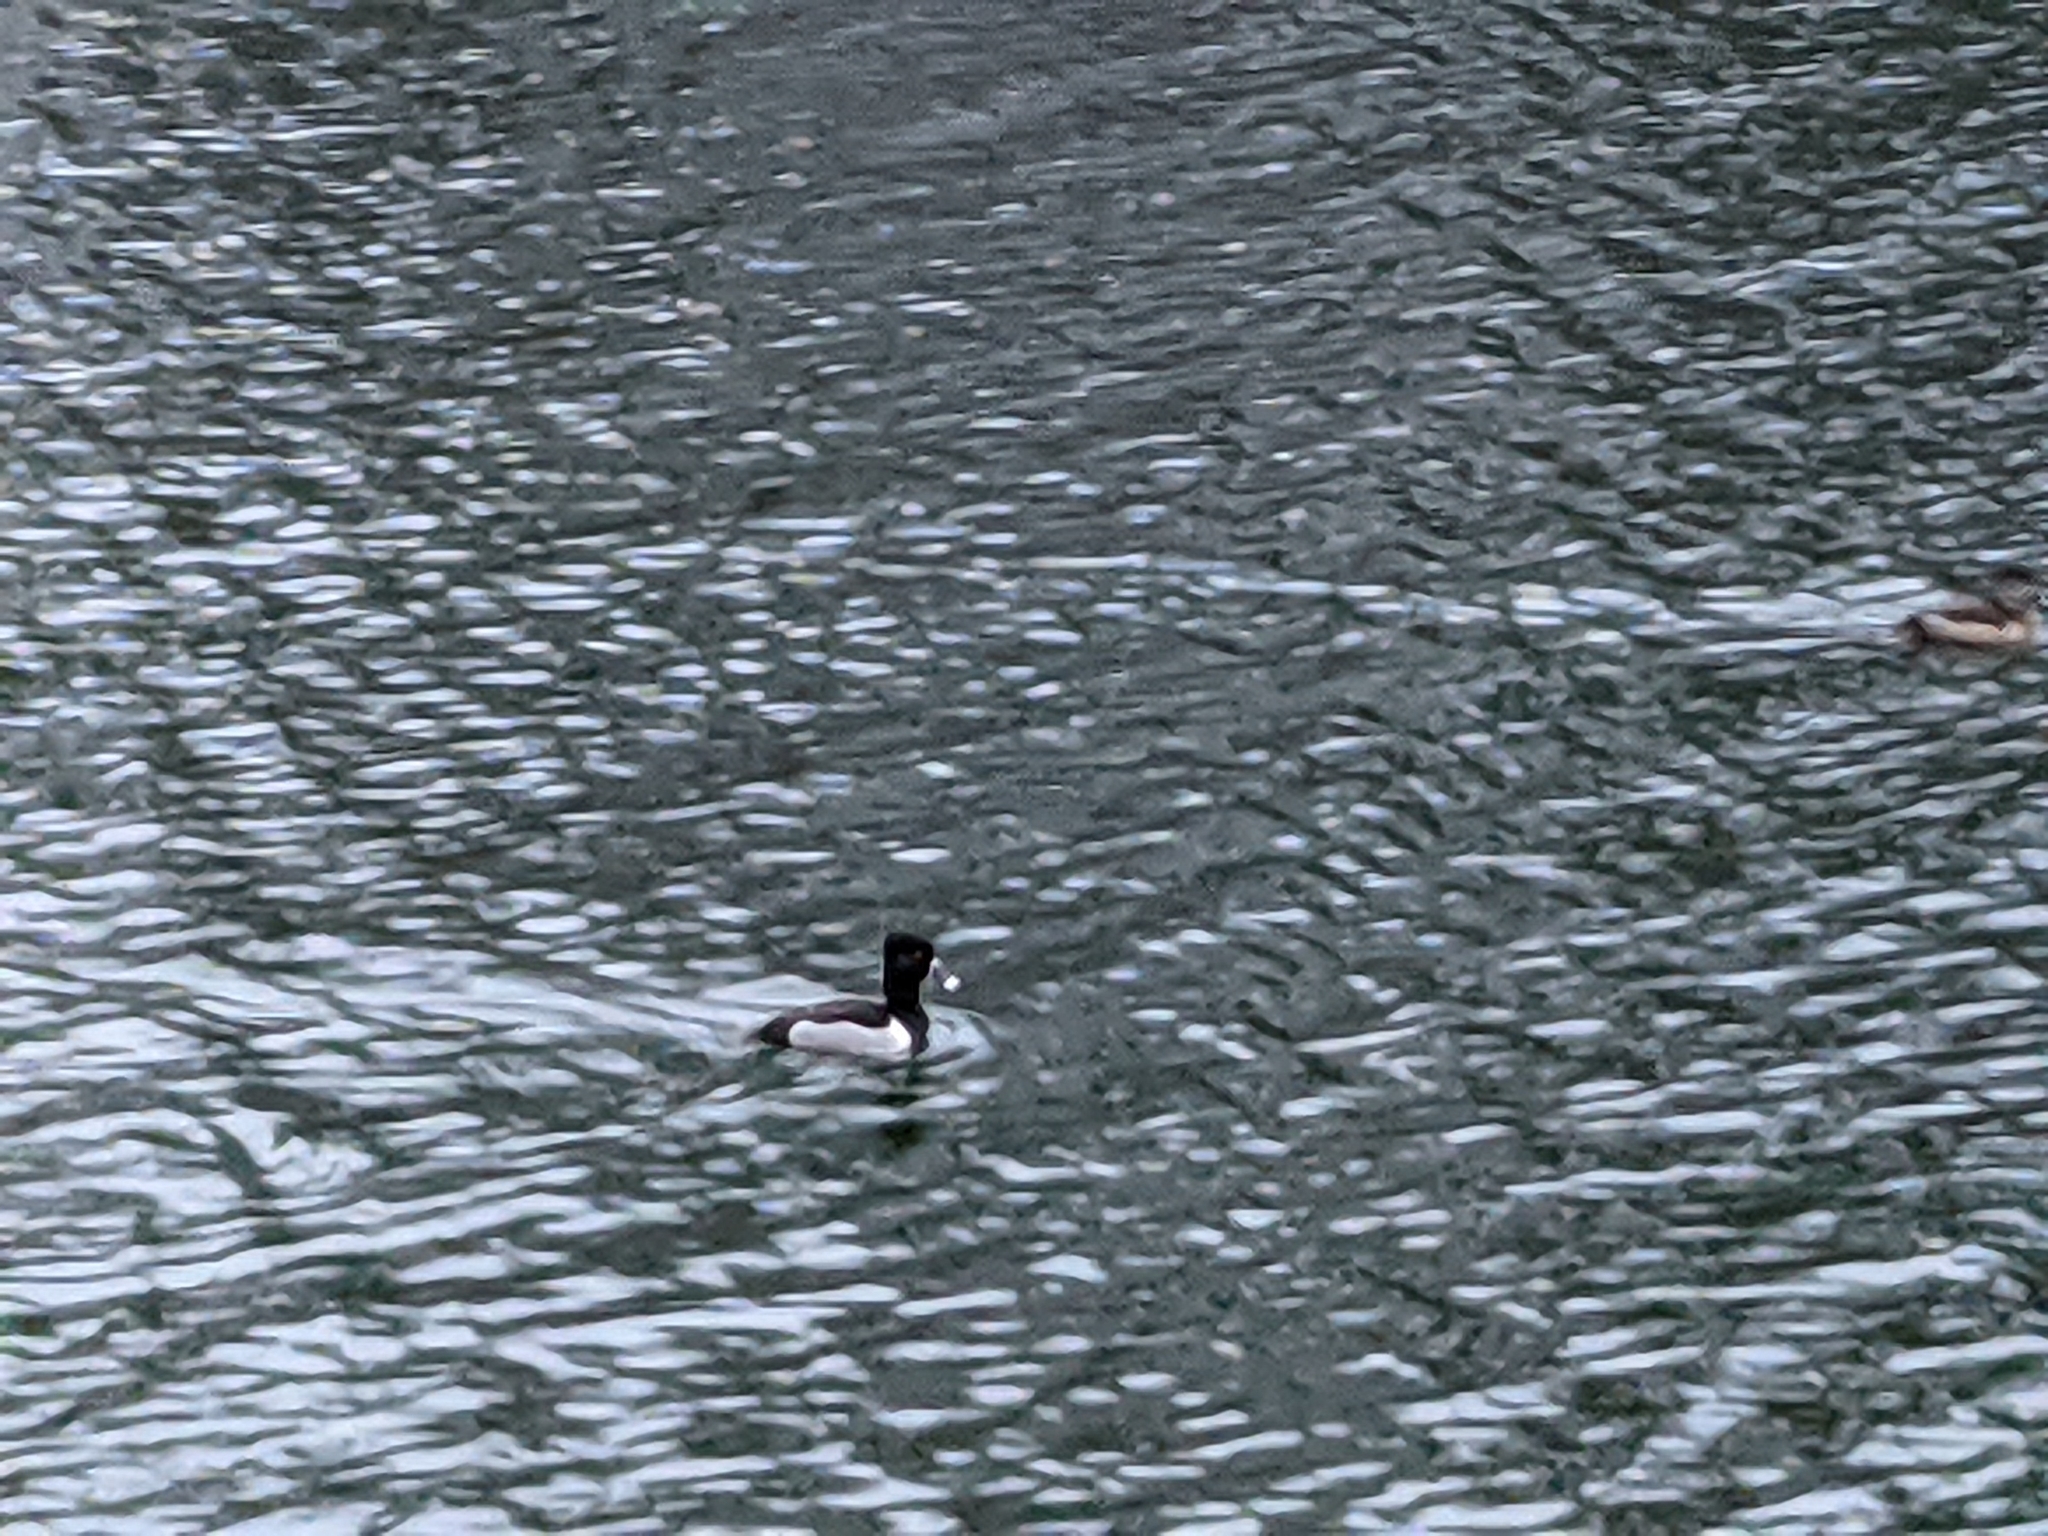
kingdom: Animalia
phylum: Chordata
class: Aves
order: Anseriformes
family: Anatidae
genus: Aythya
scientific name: Aythya collaris
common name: Ring-necked duck
